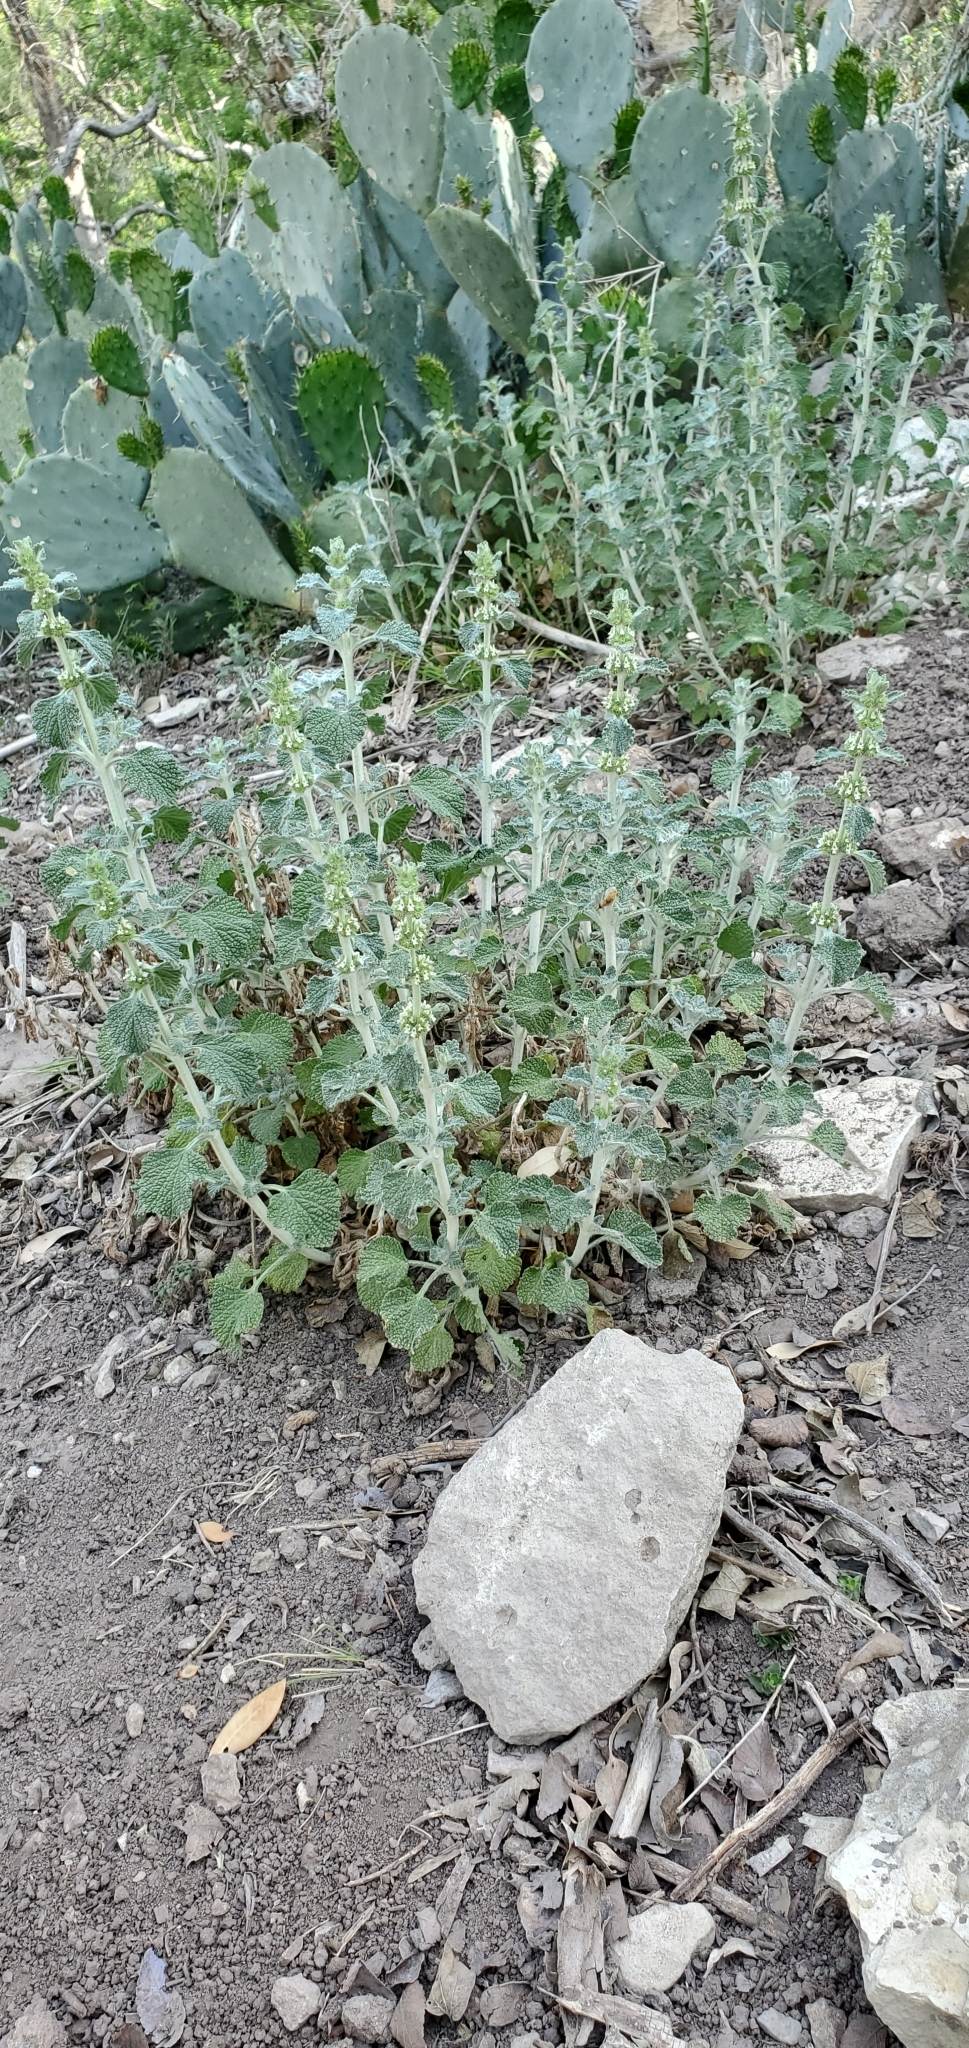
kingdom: Plantae
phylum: Tracheophyta
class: Magnoliopsida
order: Lamiales
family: Lamiaceae
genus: Marrubium
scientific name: Marrubium vulgare
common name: Horehound
